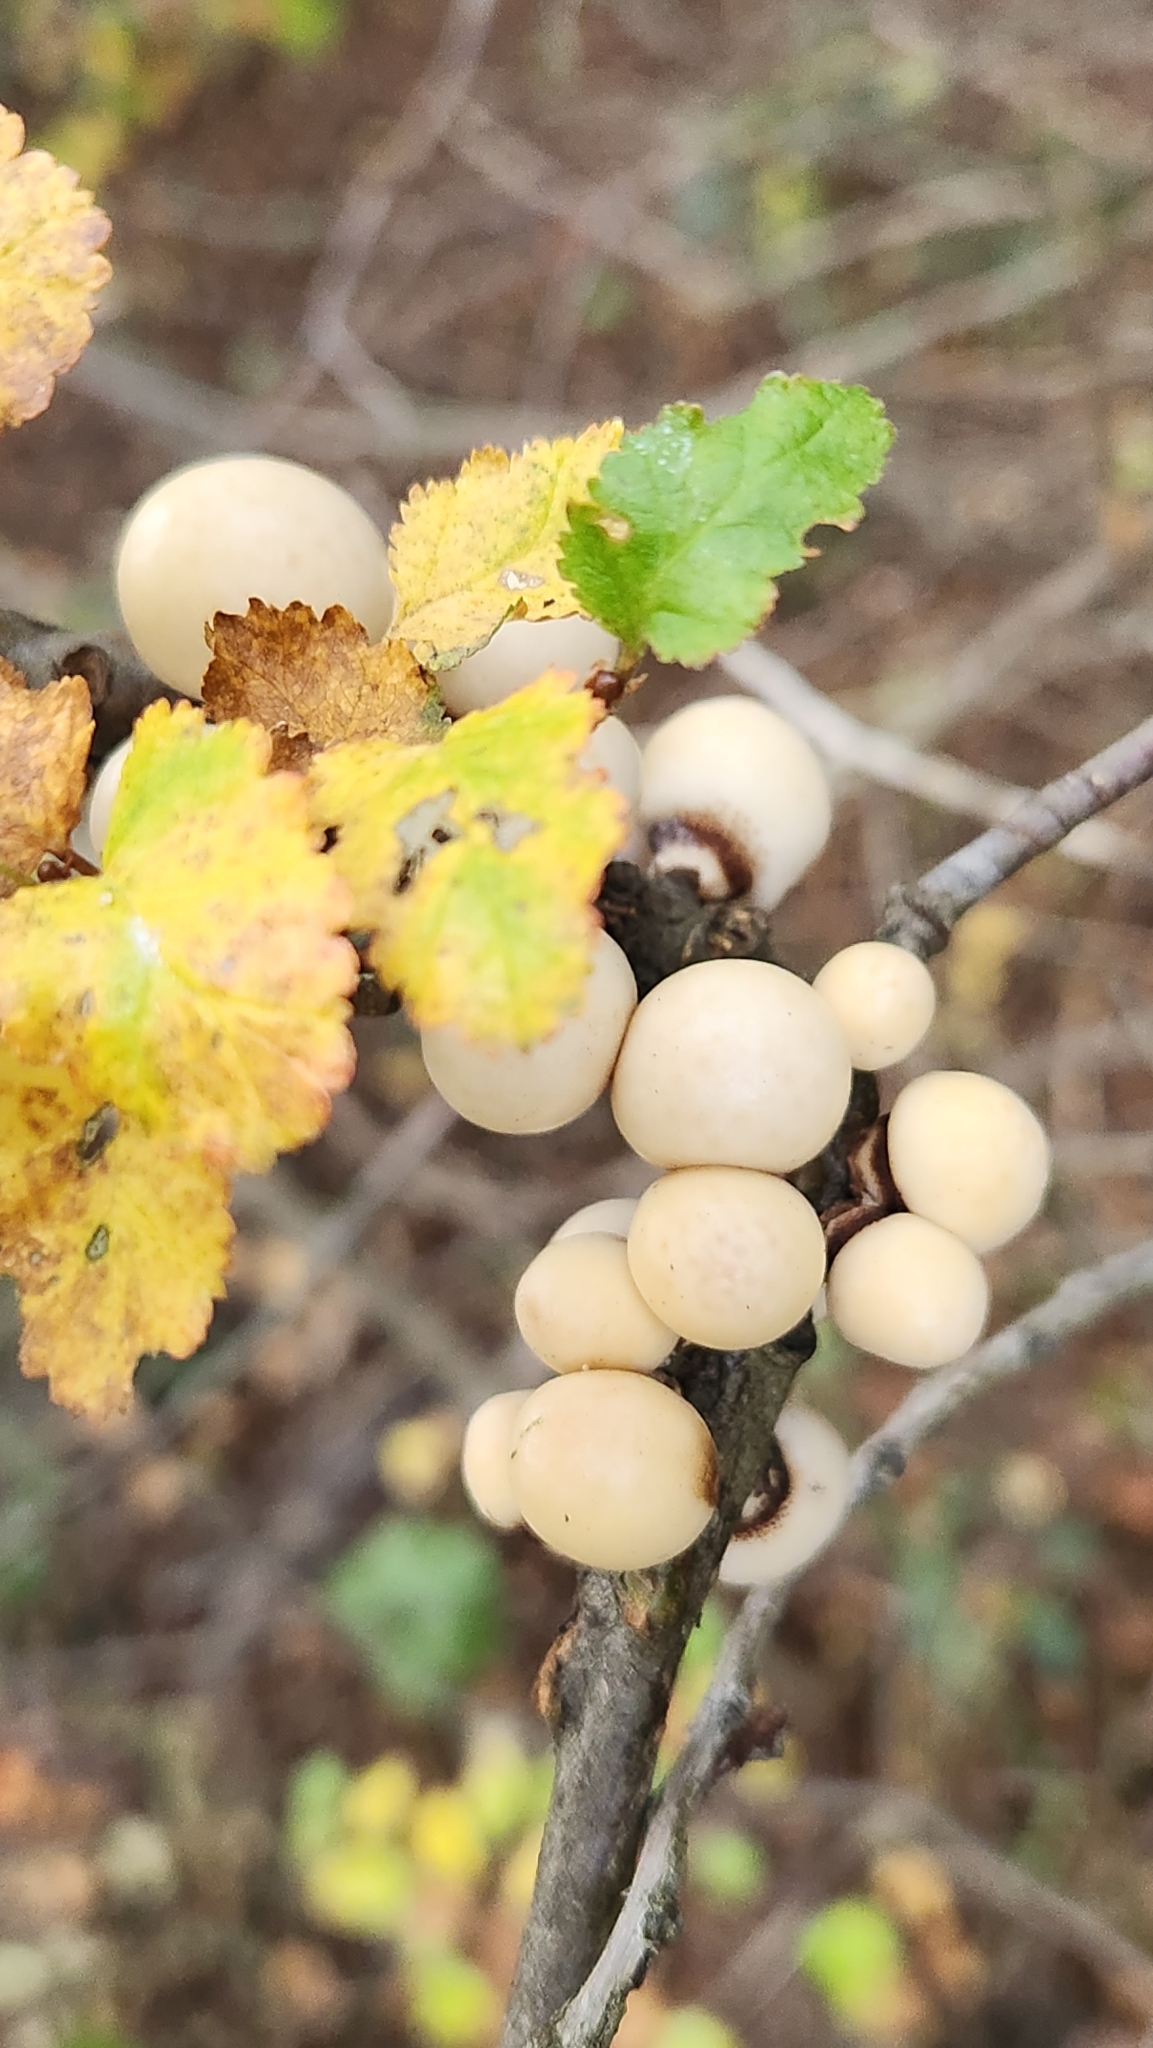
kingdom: Fungi
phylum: Ascomycota
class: Leotiomycetes
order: Cyttariales
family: Cyttariaceae
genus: Cyttaria
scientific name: Cyttaria darwinii
